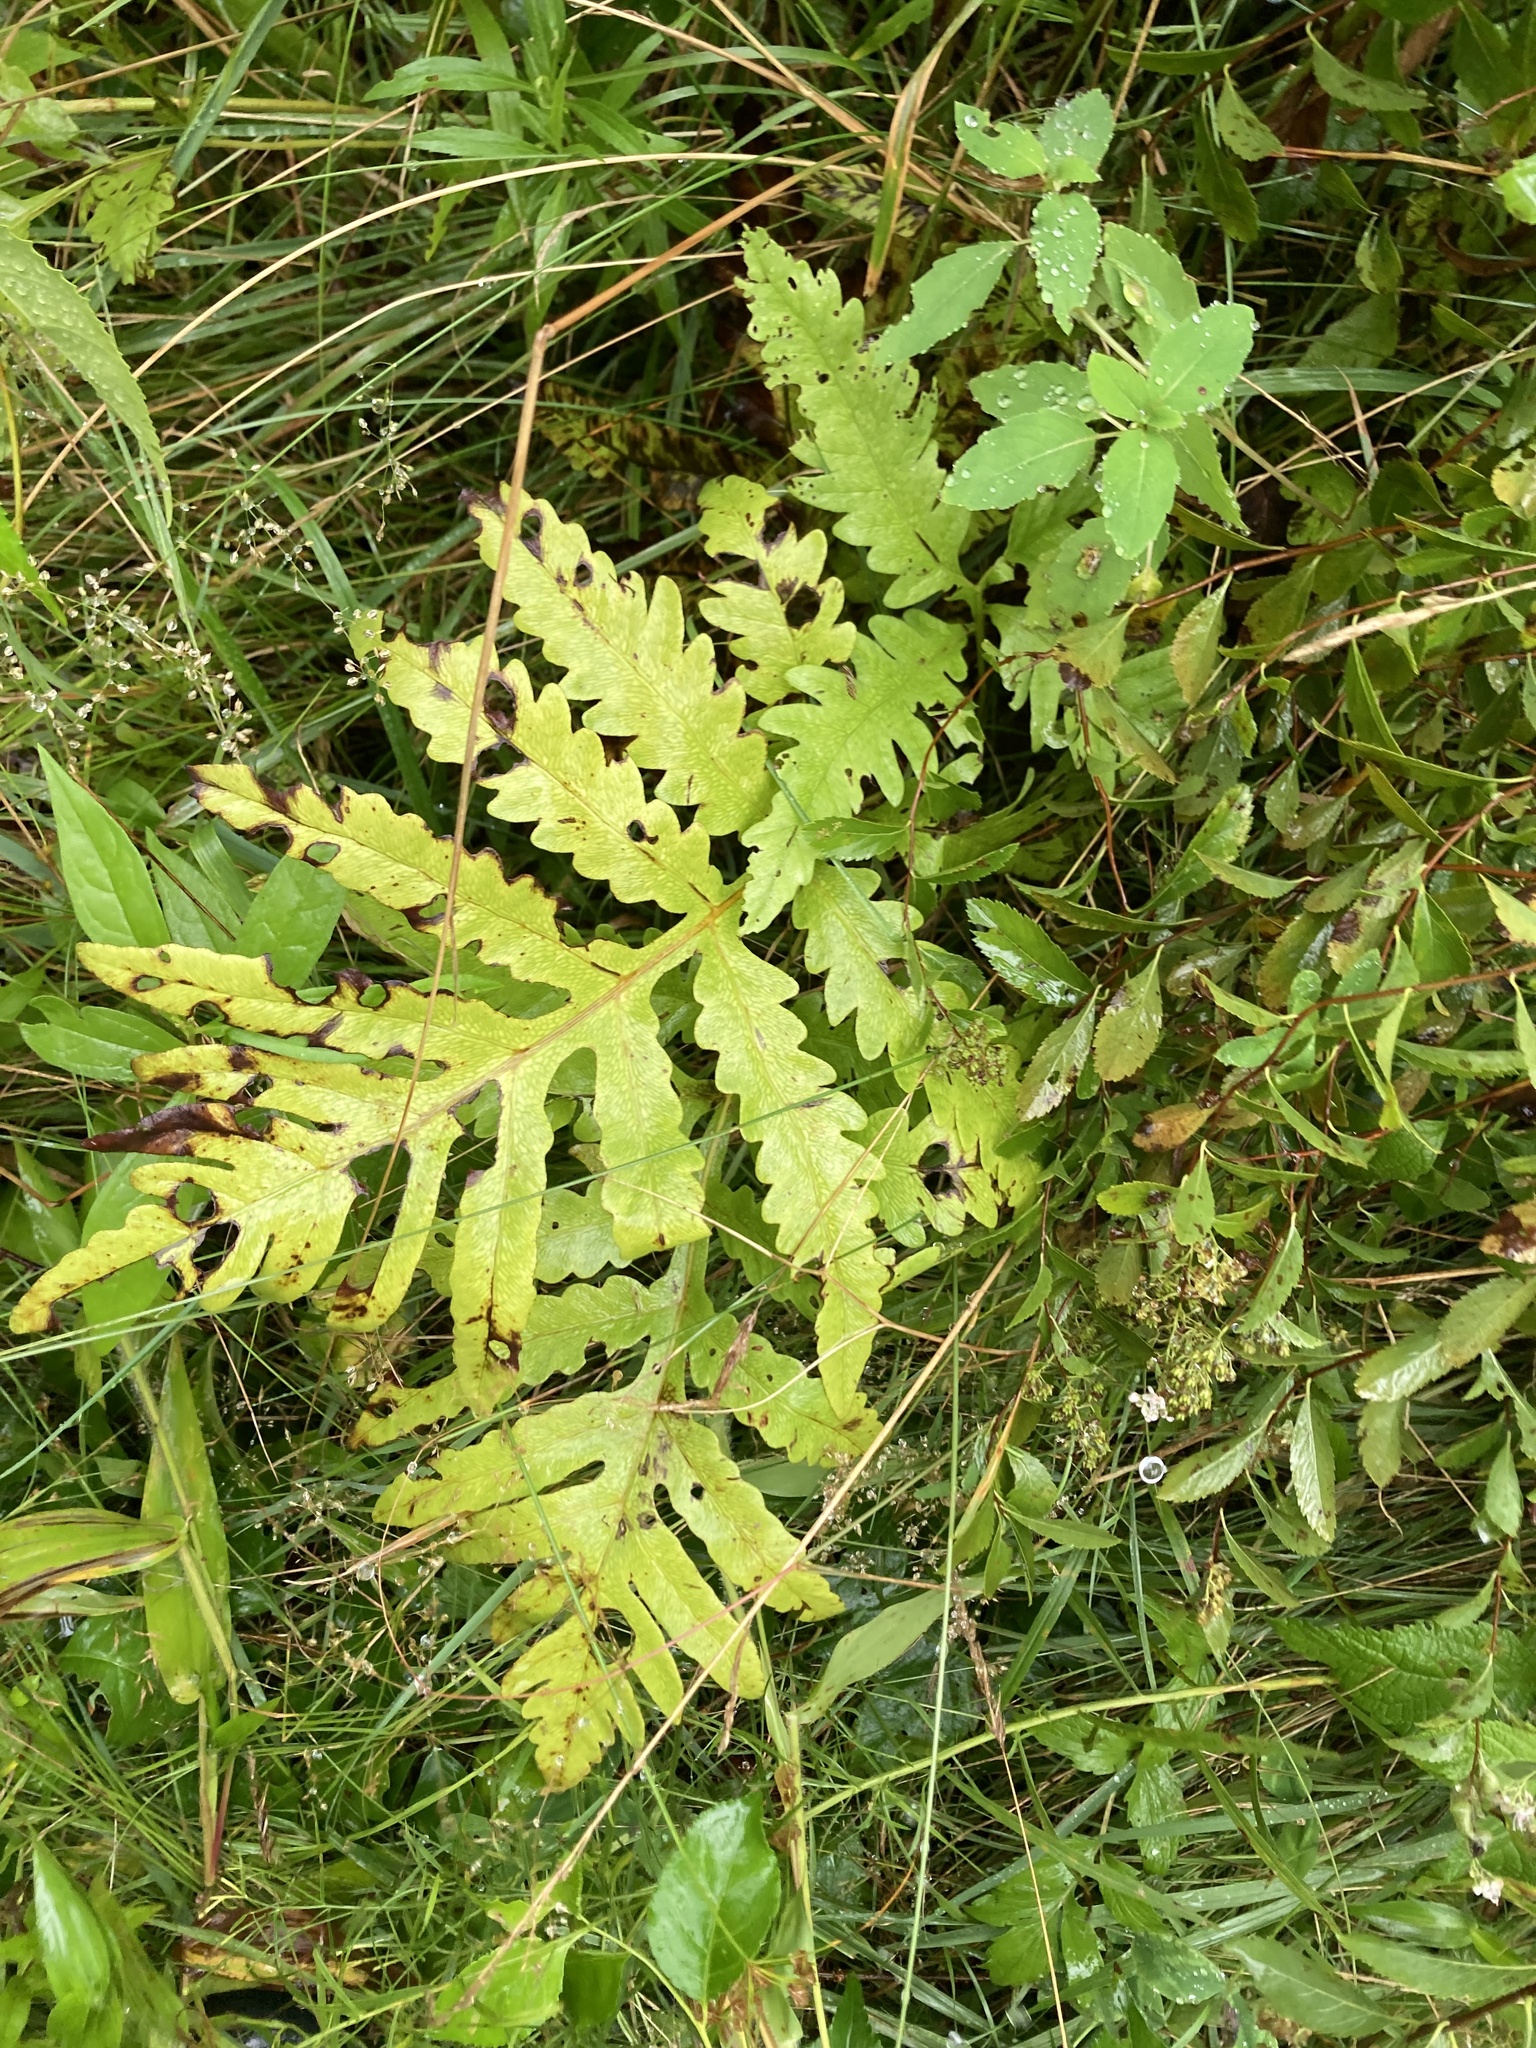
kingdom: Plantae
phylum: Tracheophyta
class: Polypodiopsida
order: Polypodiales
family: Onocleaceae
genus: Onoclea
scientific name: Onoclea sensibilis
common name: Sensitive fern
